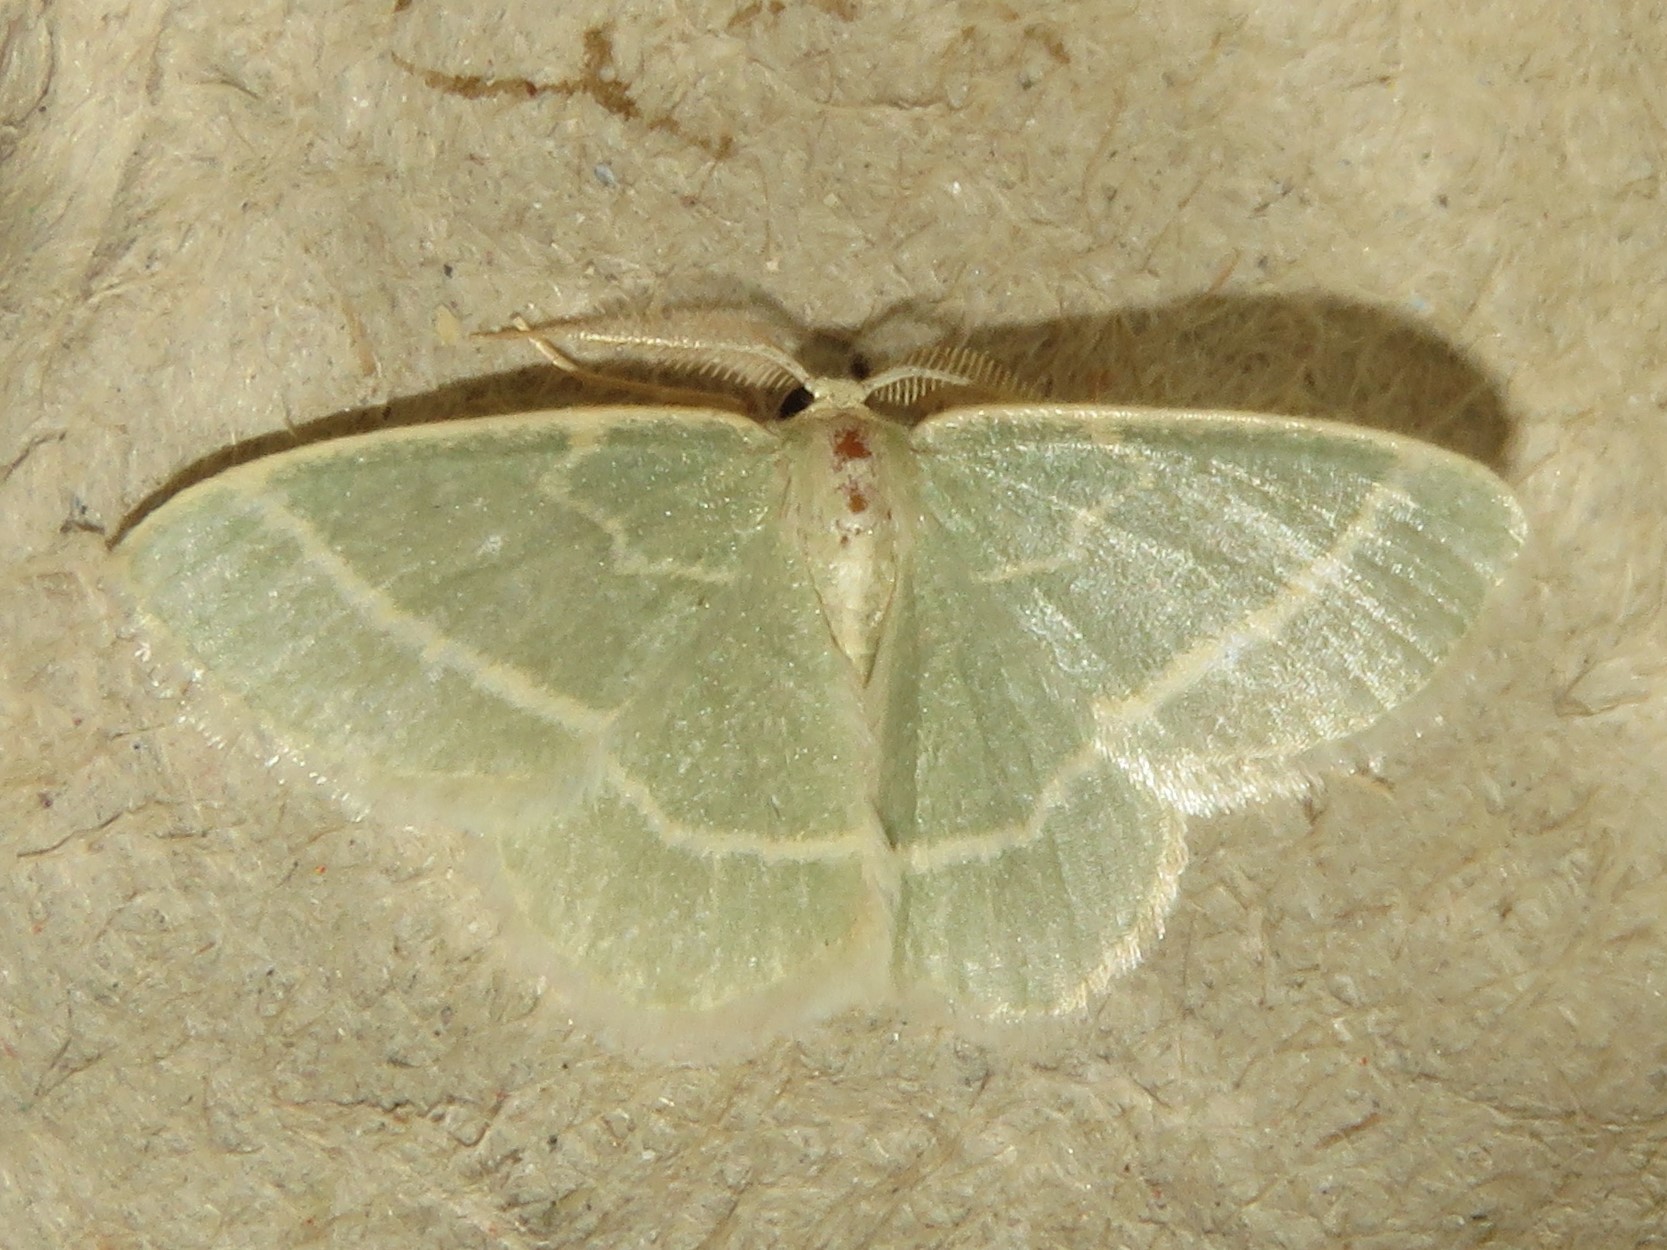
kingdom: Animalia
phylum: Arthropoda
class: Insecta
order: Lepidoptera
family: Geometridae
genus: Chlorochlamys
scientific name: Chlorochlamys chloroleucaria
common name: Blackberry looper
